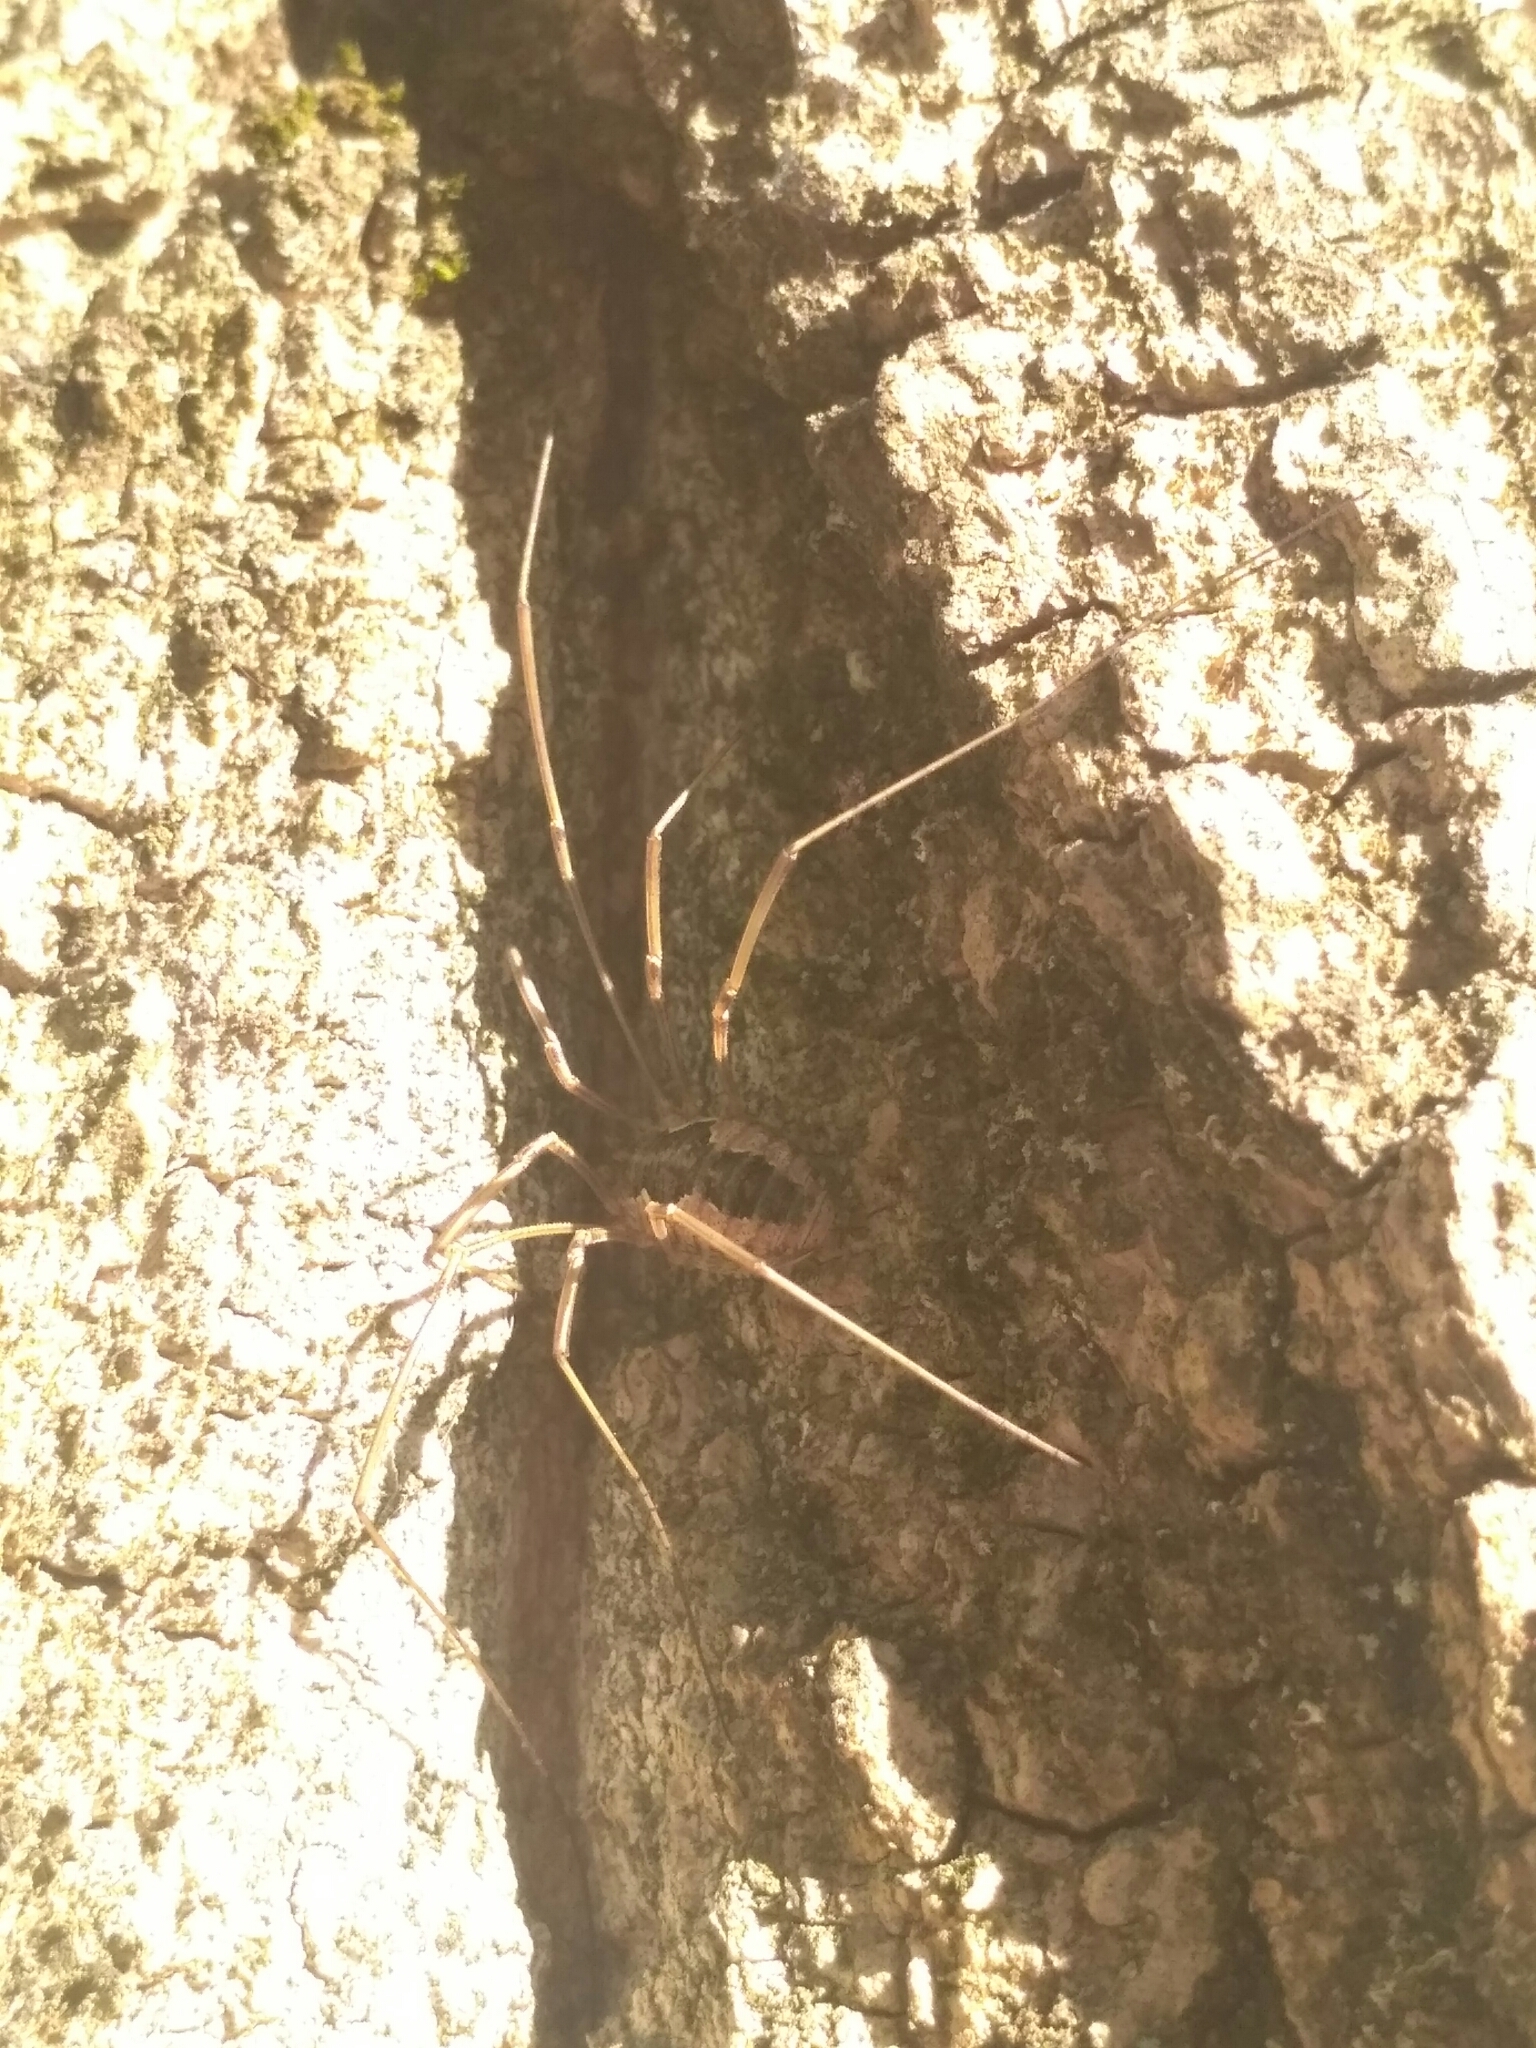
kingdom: Animalia
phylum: Arthropoda
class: Arachnida
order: Opiliones
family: Phalangiidae
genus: Phalangium
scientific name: Phalangium opilio
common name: Daddy longleg
